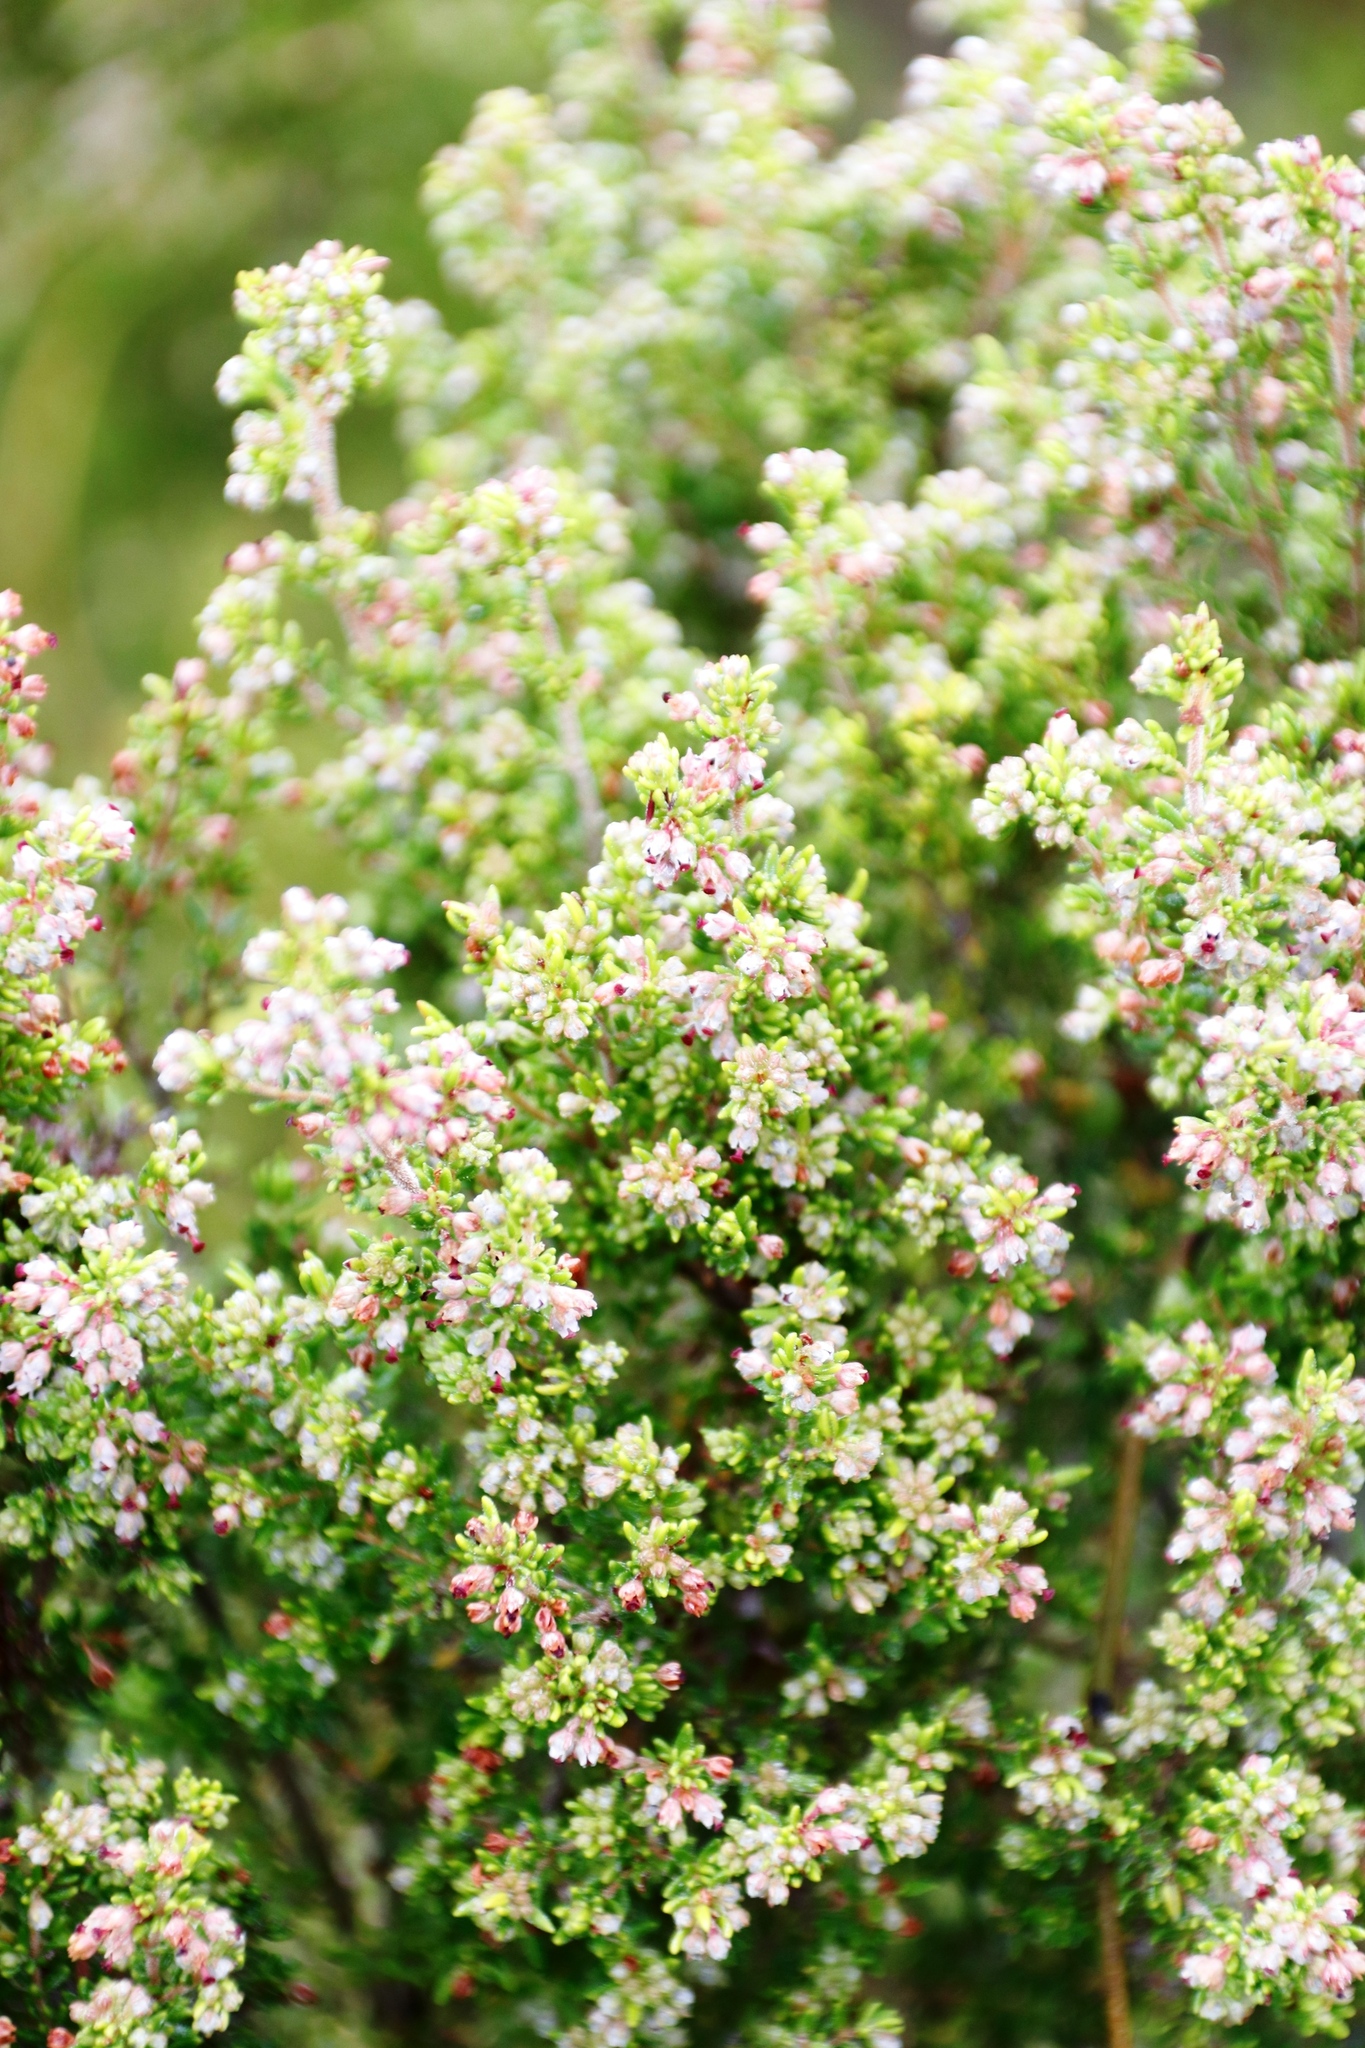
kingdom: Plantae
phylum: Tracheophyta
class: Magnoliopsida
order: Ericales
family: Ericaceae
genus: Erica
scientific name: Erica hispidula
